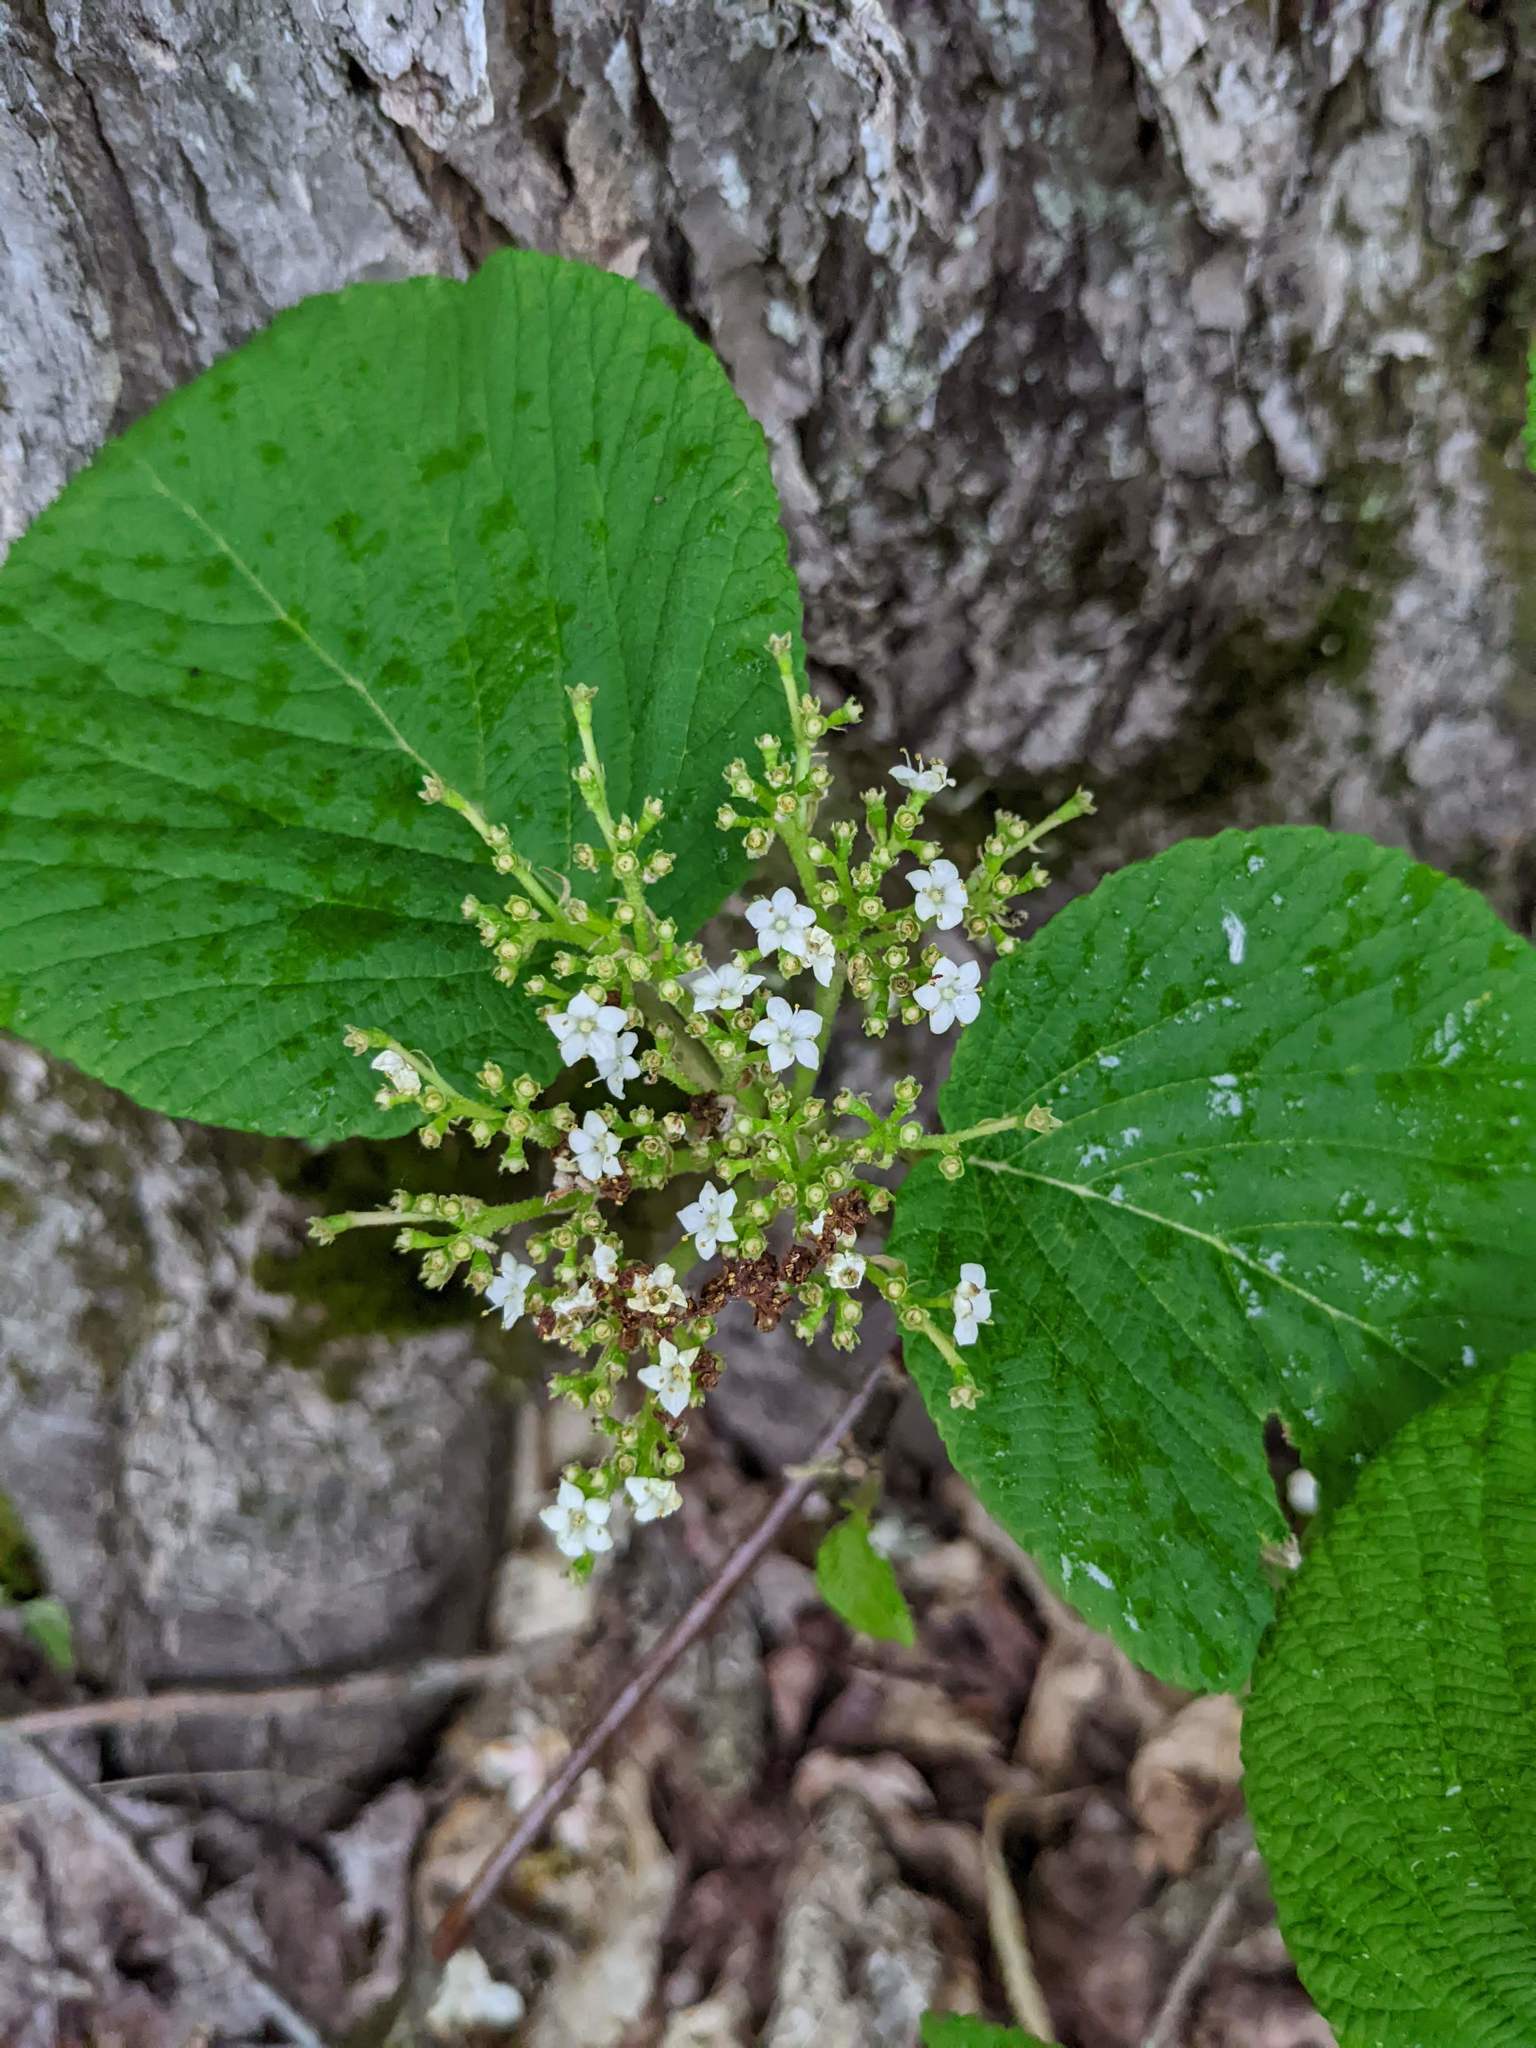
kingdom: Plantae
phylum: Tracheophyta
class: Magnoliopsida
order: Dipsacales
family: Viburnaceae
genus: Viburnum
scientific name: Viburnum lantanoides
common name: Hobblebush
